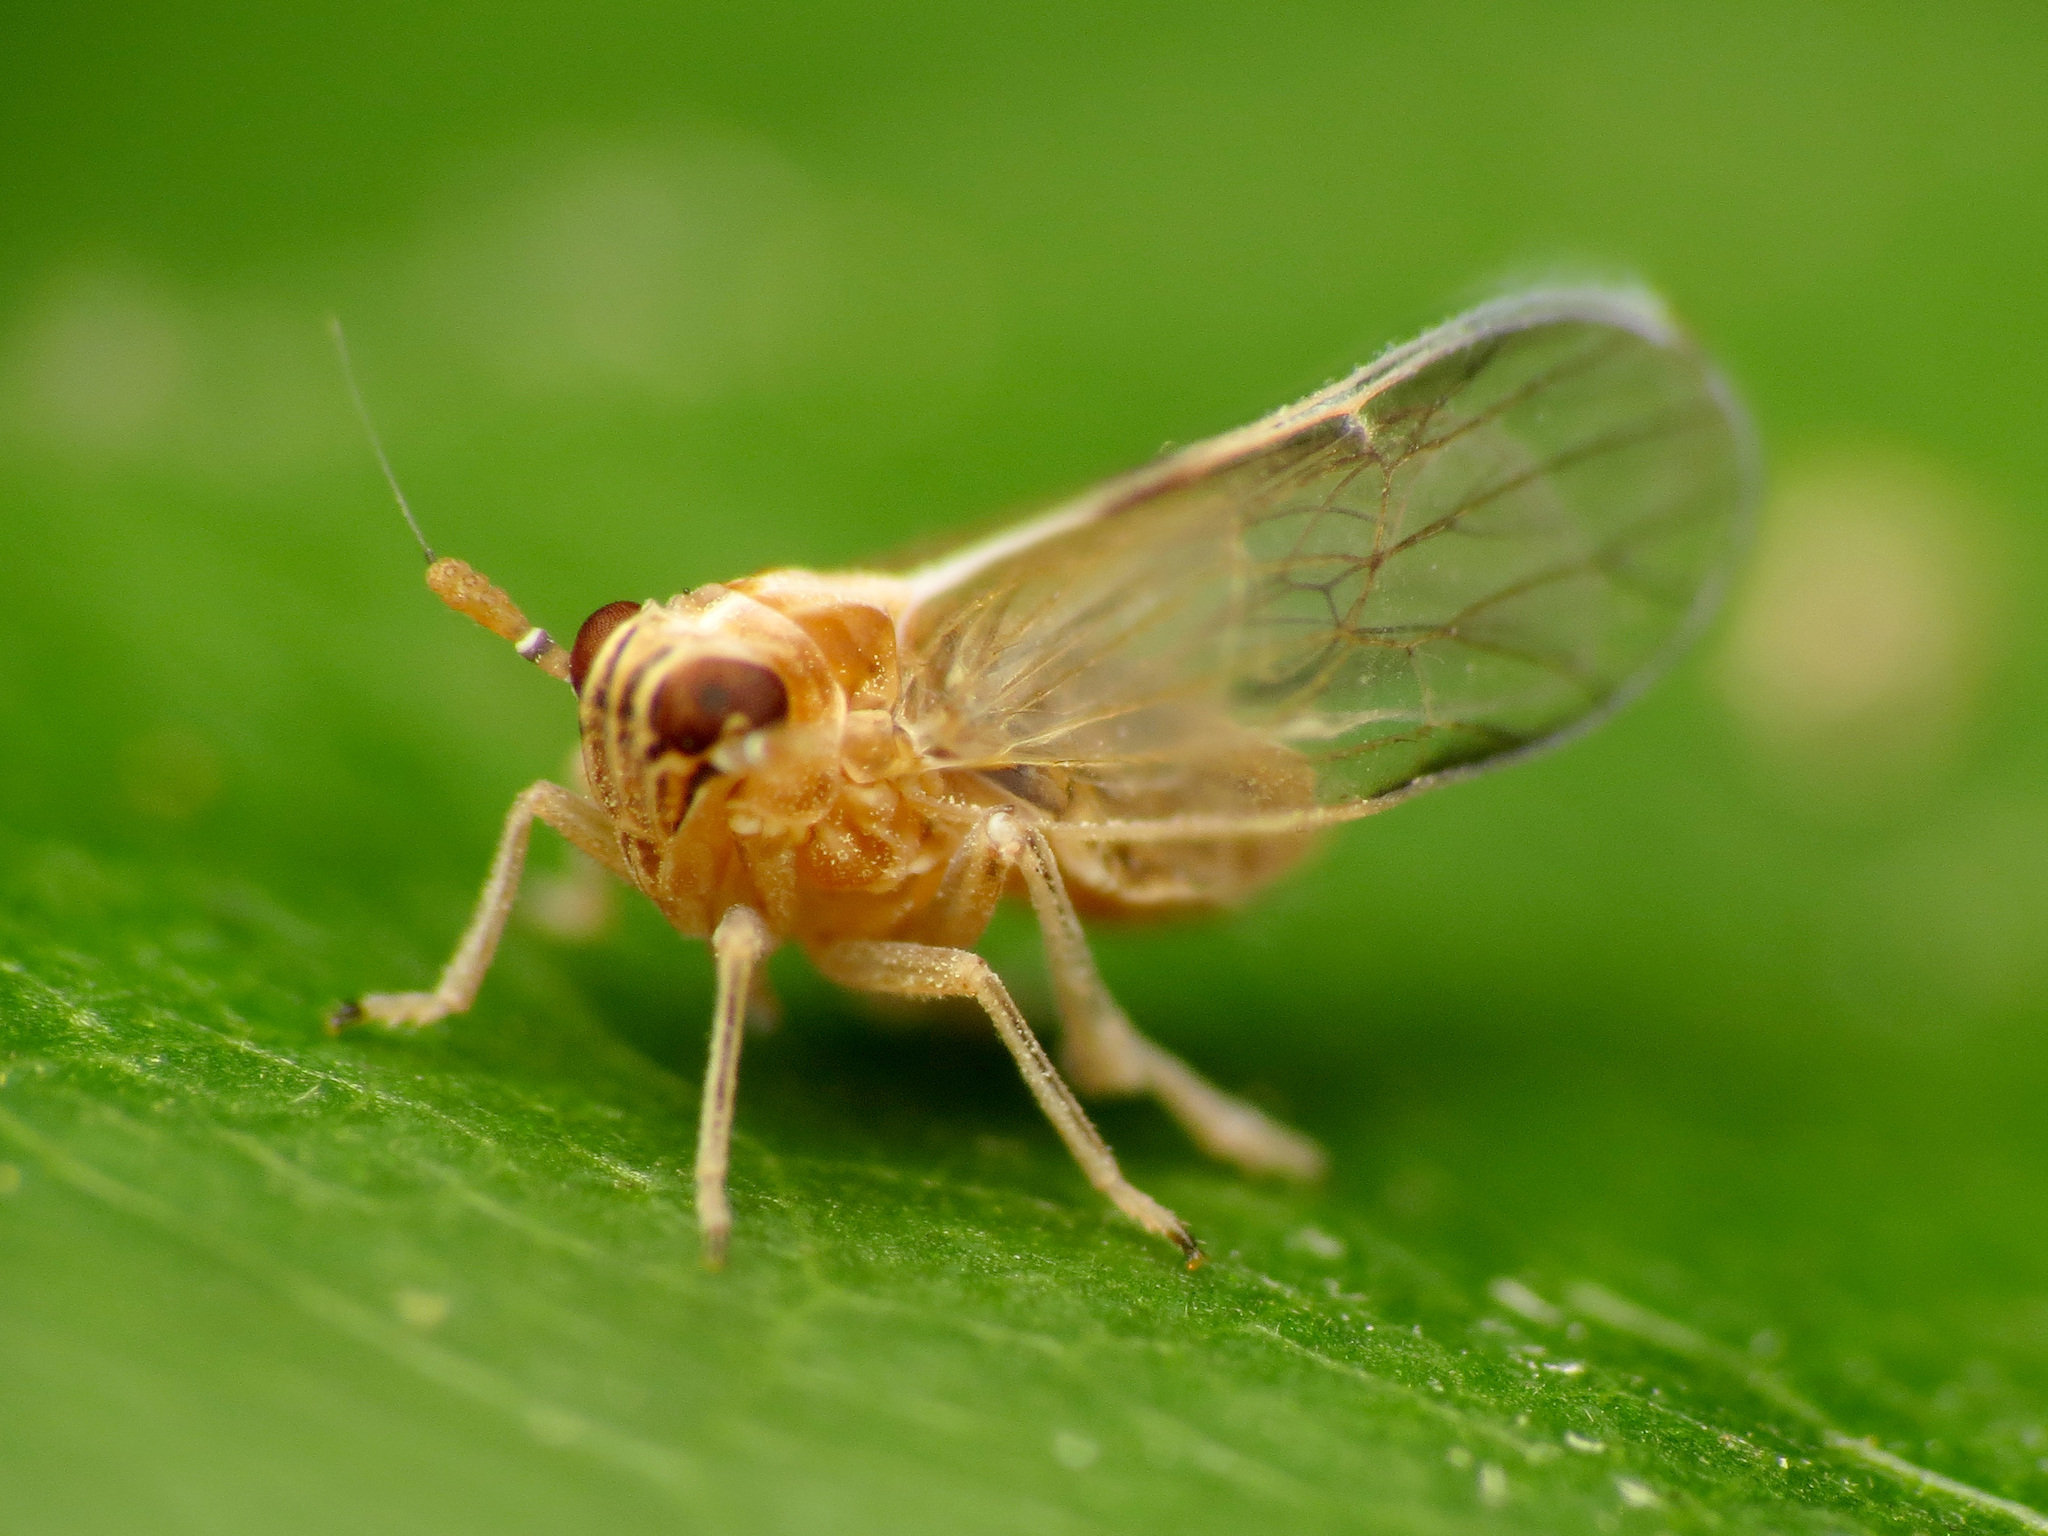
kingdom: Animalia
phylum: Arthropoda
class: Insecta
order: Hemiptera
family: Delphacidae
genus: Javesella
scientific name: Javesella pellucida
